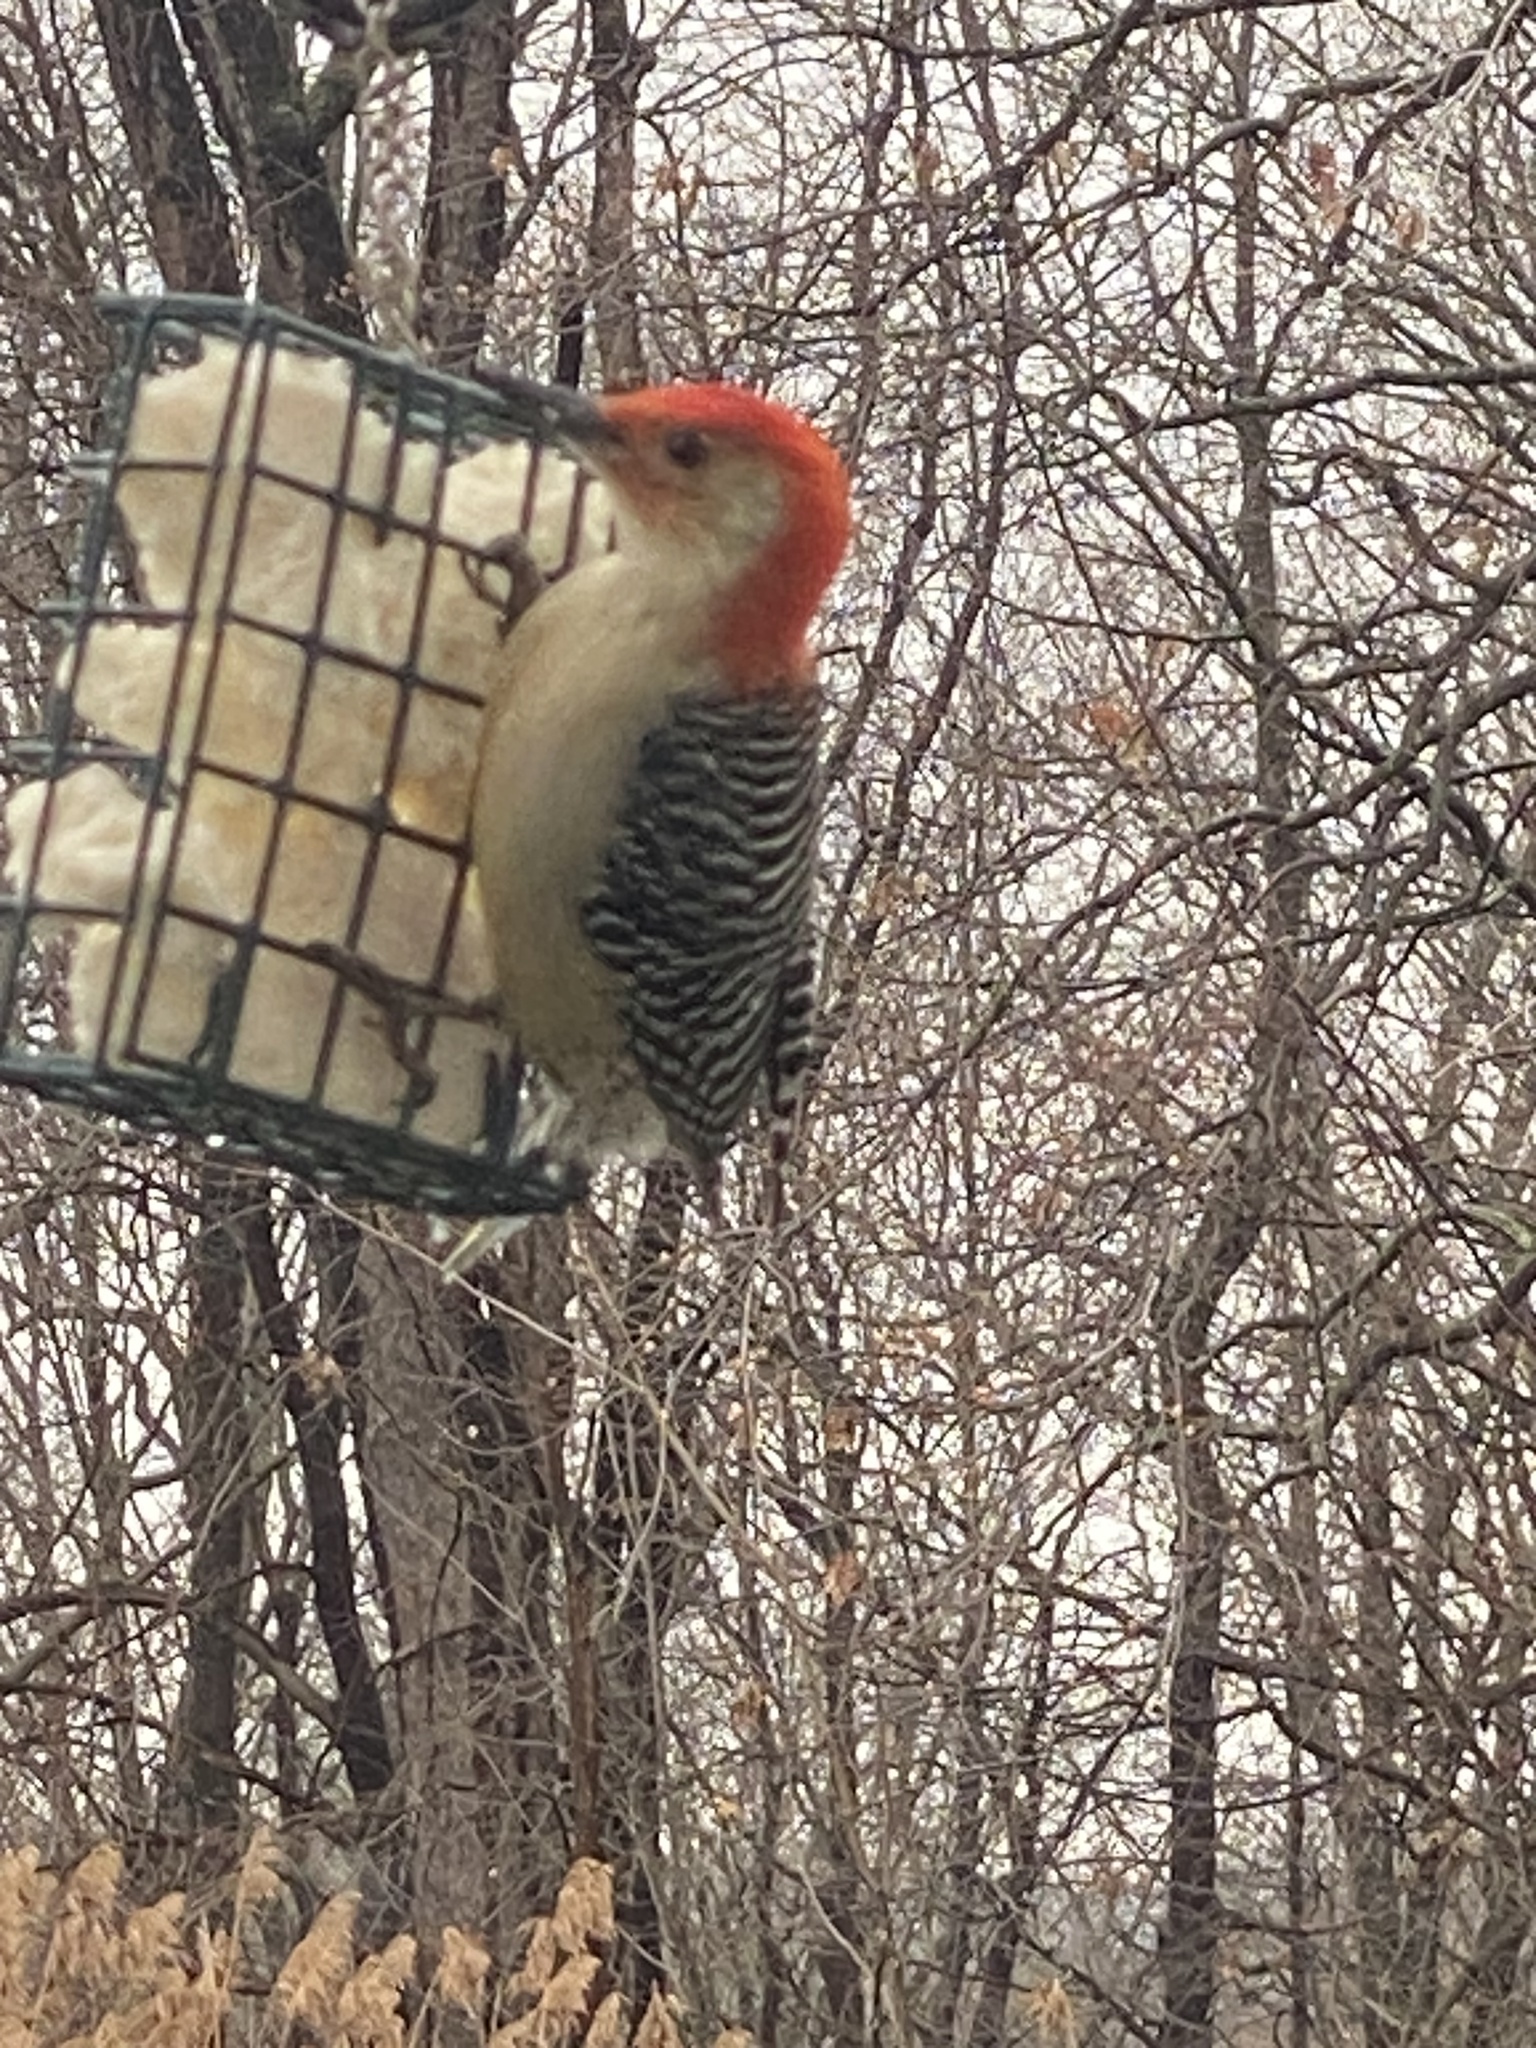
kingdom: Animalia
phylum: Chordata
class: Aves
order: Piciformes
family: Picidae
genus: Melanerpes
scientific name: Melanerpes carolinus
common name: Red-bellied woodpecker
